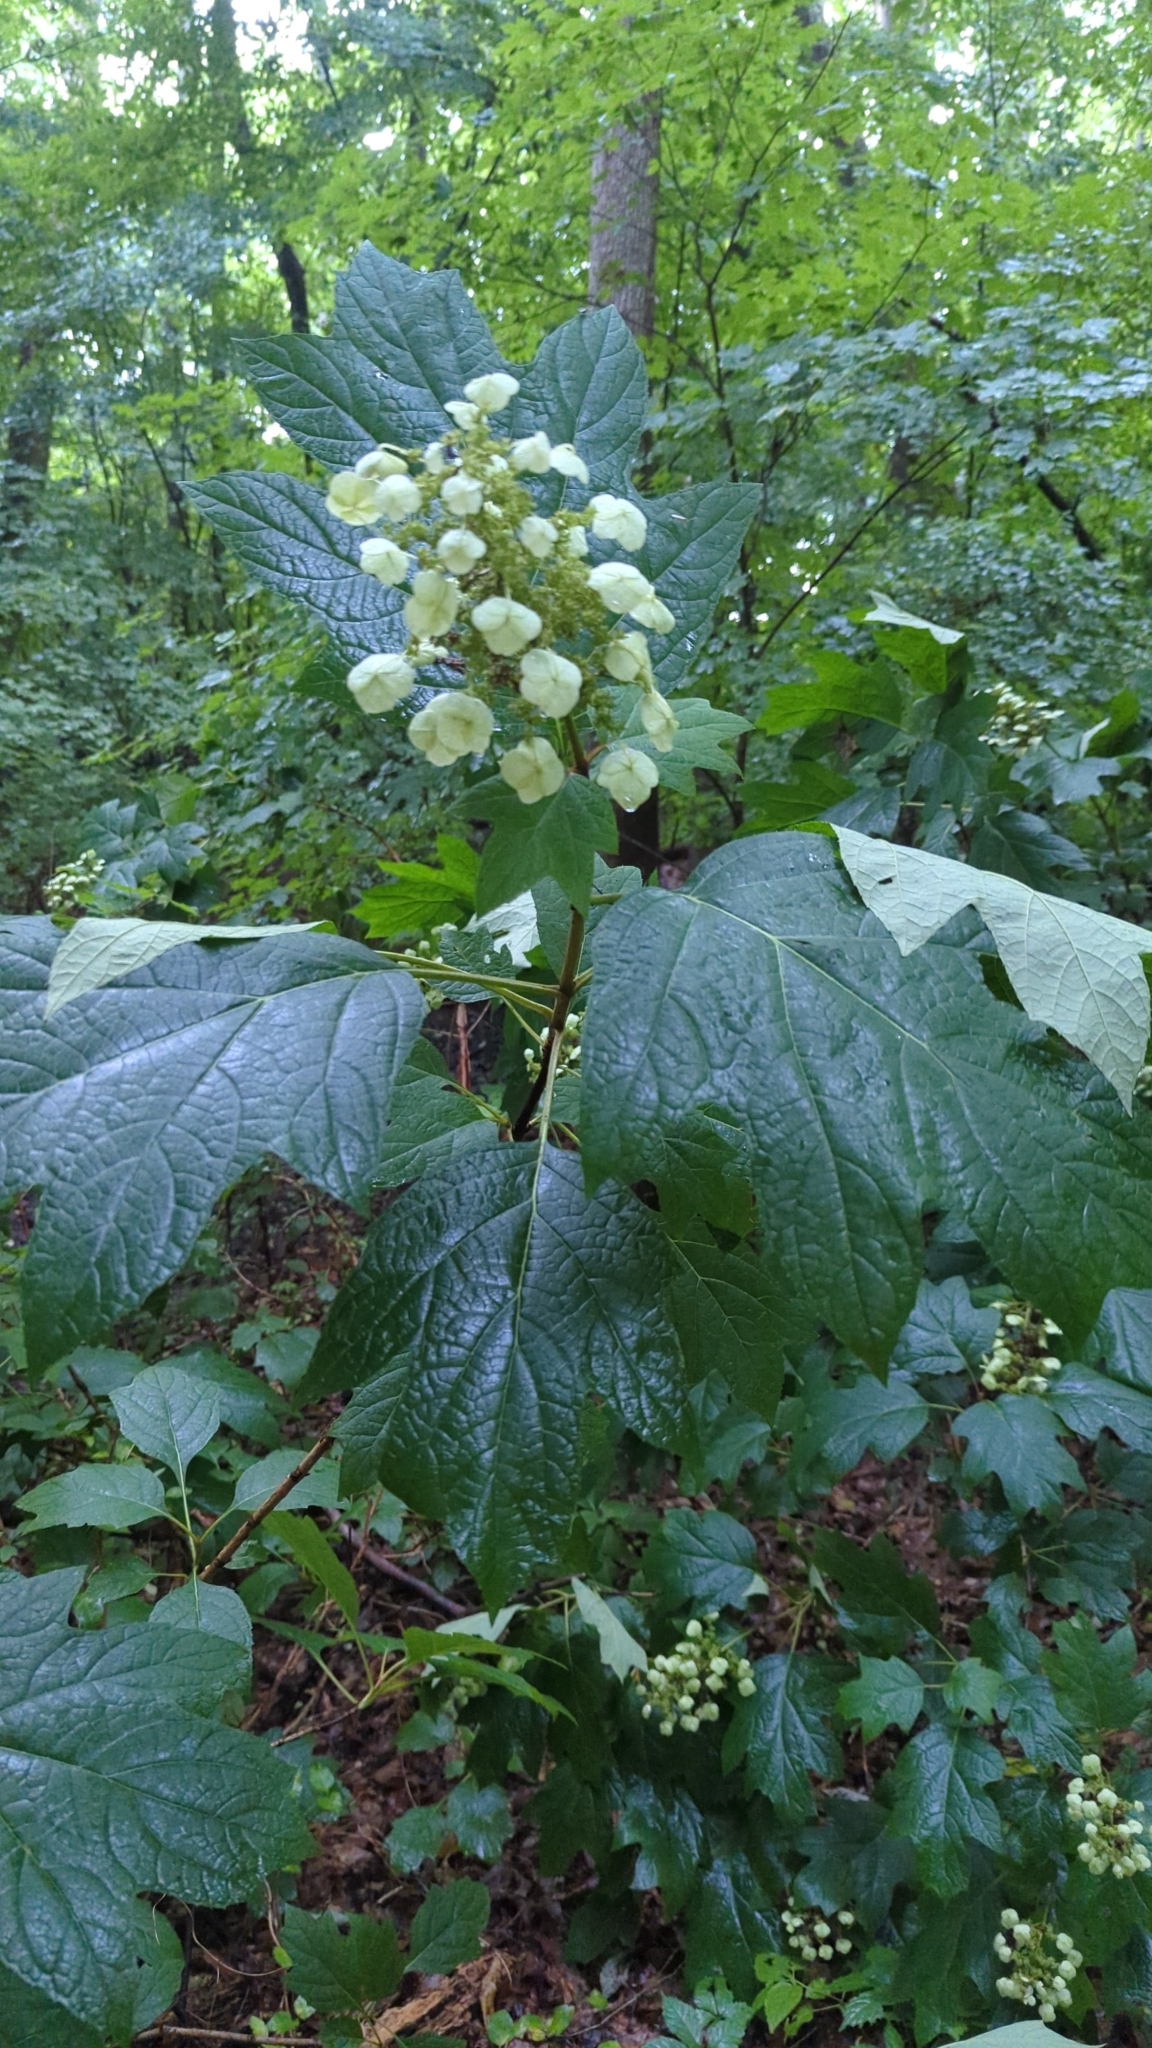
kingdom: Plantae
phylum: Tracheophyta
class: Magnoliopsida
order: Cornales
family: Hydrangeaceae
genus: Hydrangea
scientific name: Hydrangea quercifolia
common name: Oak-leaf hydrangea
